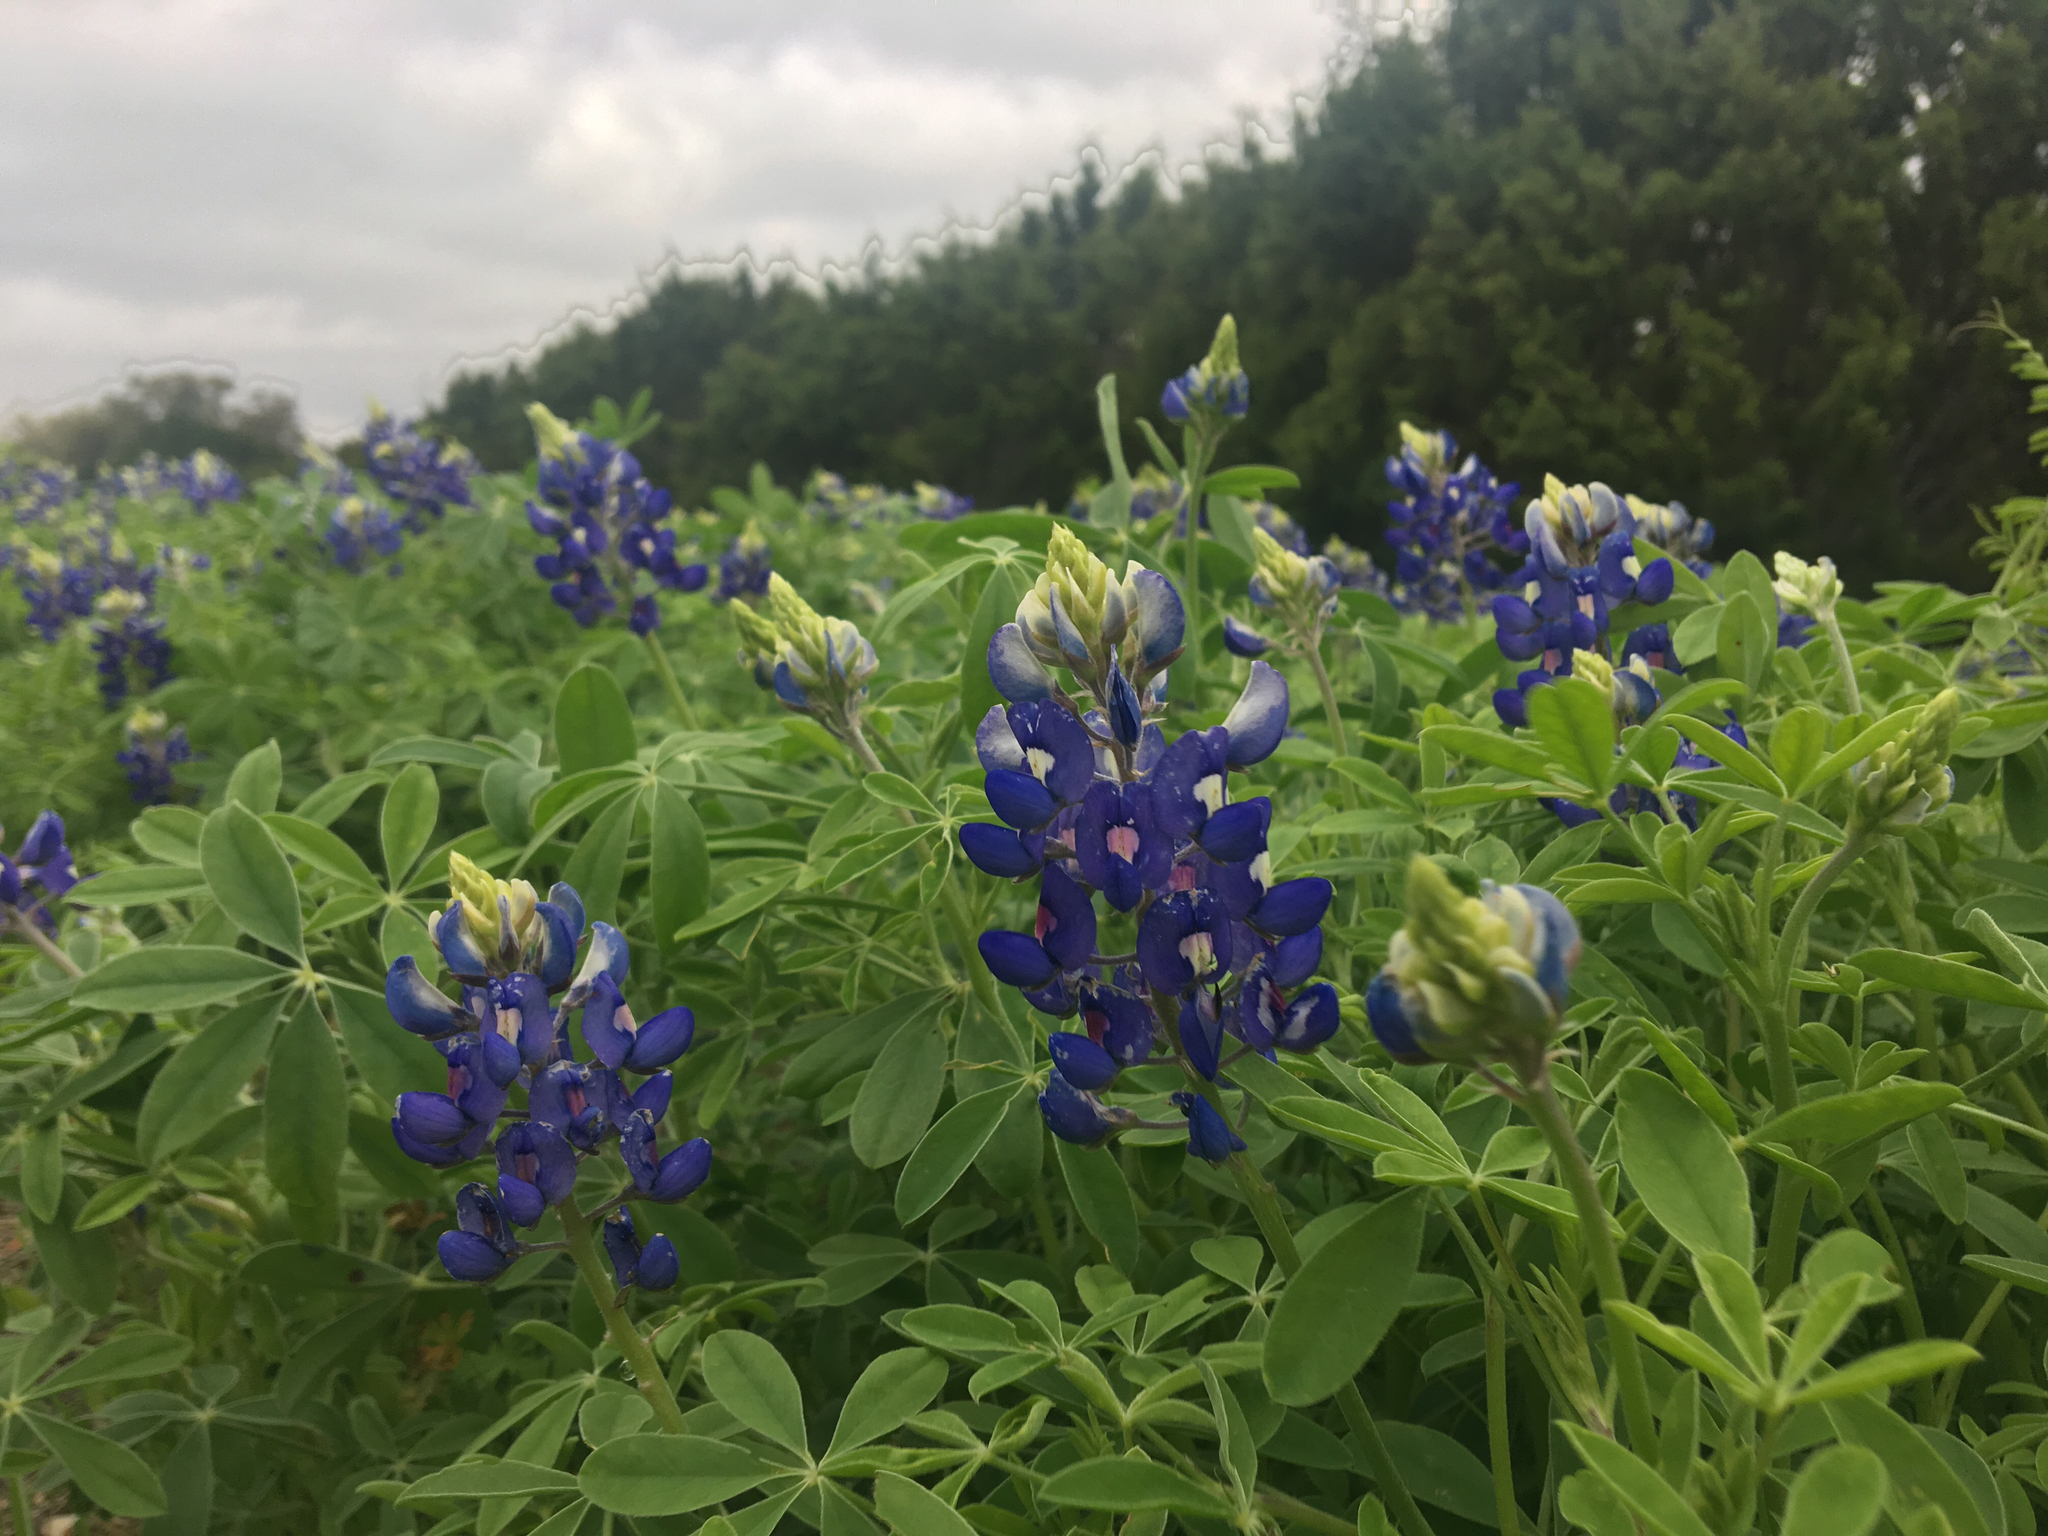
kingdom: Plantae
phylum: Tracheophyta
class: Magnoliopsida
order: Fabales
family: Fabaceae
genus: Lupinus
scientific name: Lupinus texensis
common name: Texas bluebonnet
